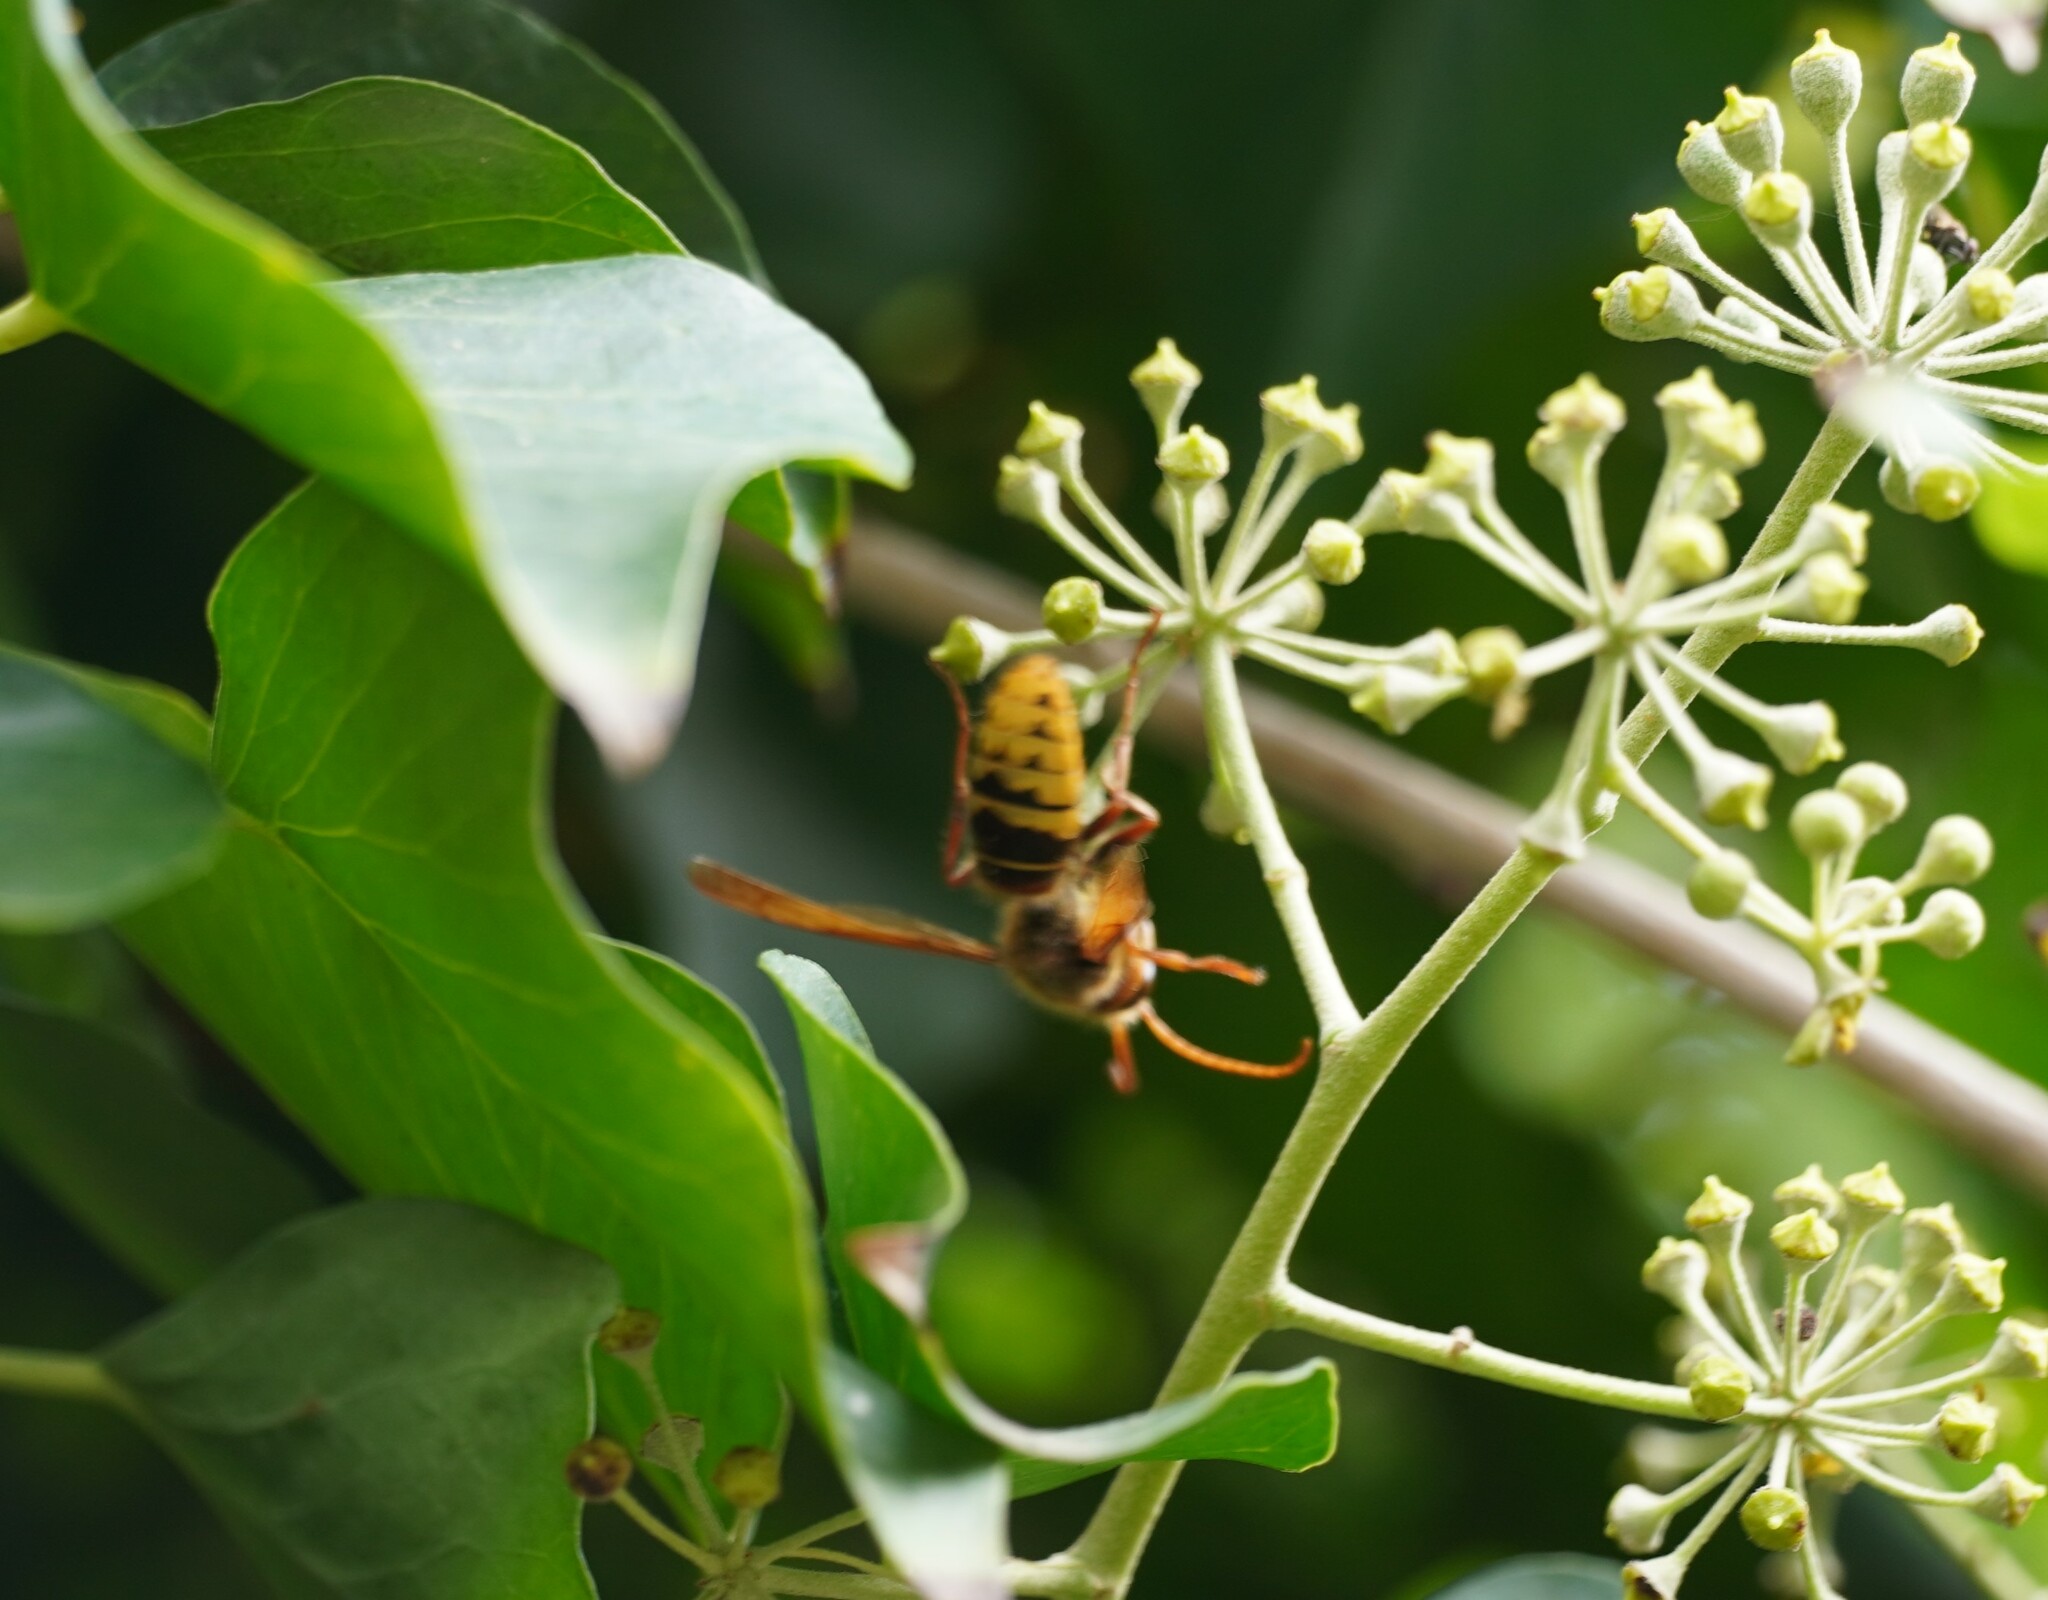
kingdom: Animalia
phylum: Arthropoda
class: Insecta
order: Hymenoptera
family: Vespidae
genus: Vespa
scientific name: Vespa crabro
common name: Hornet
